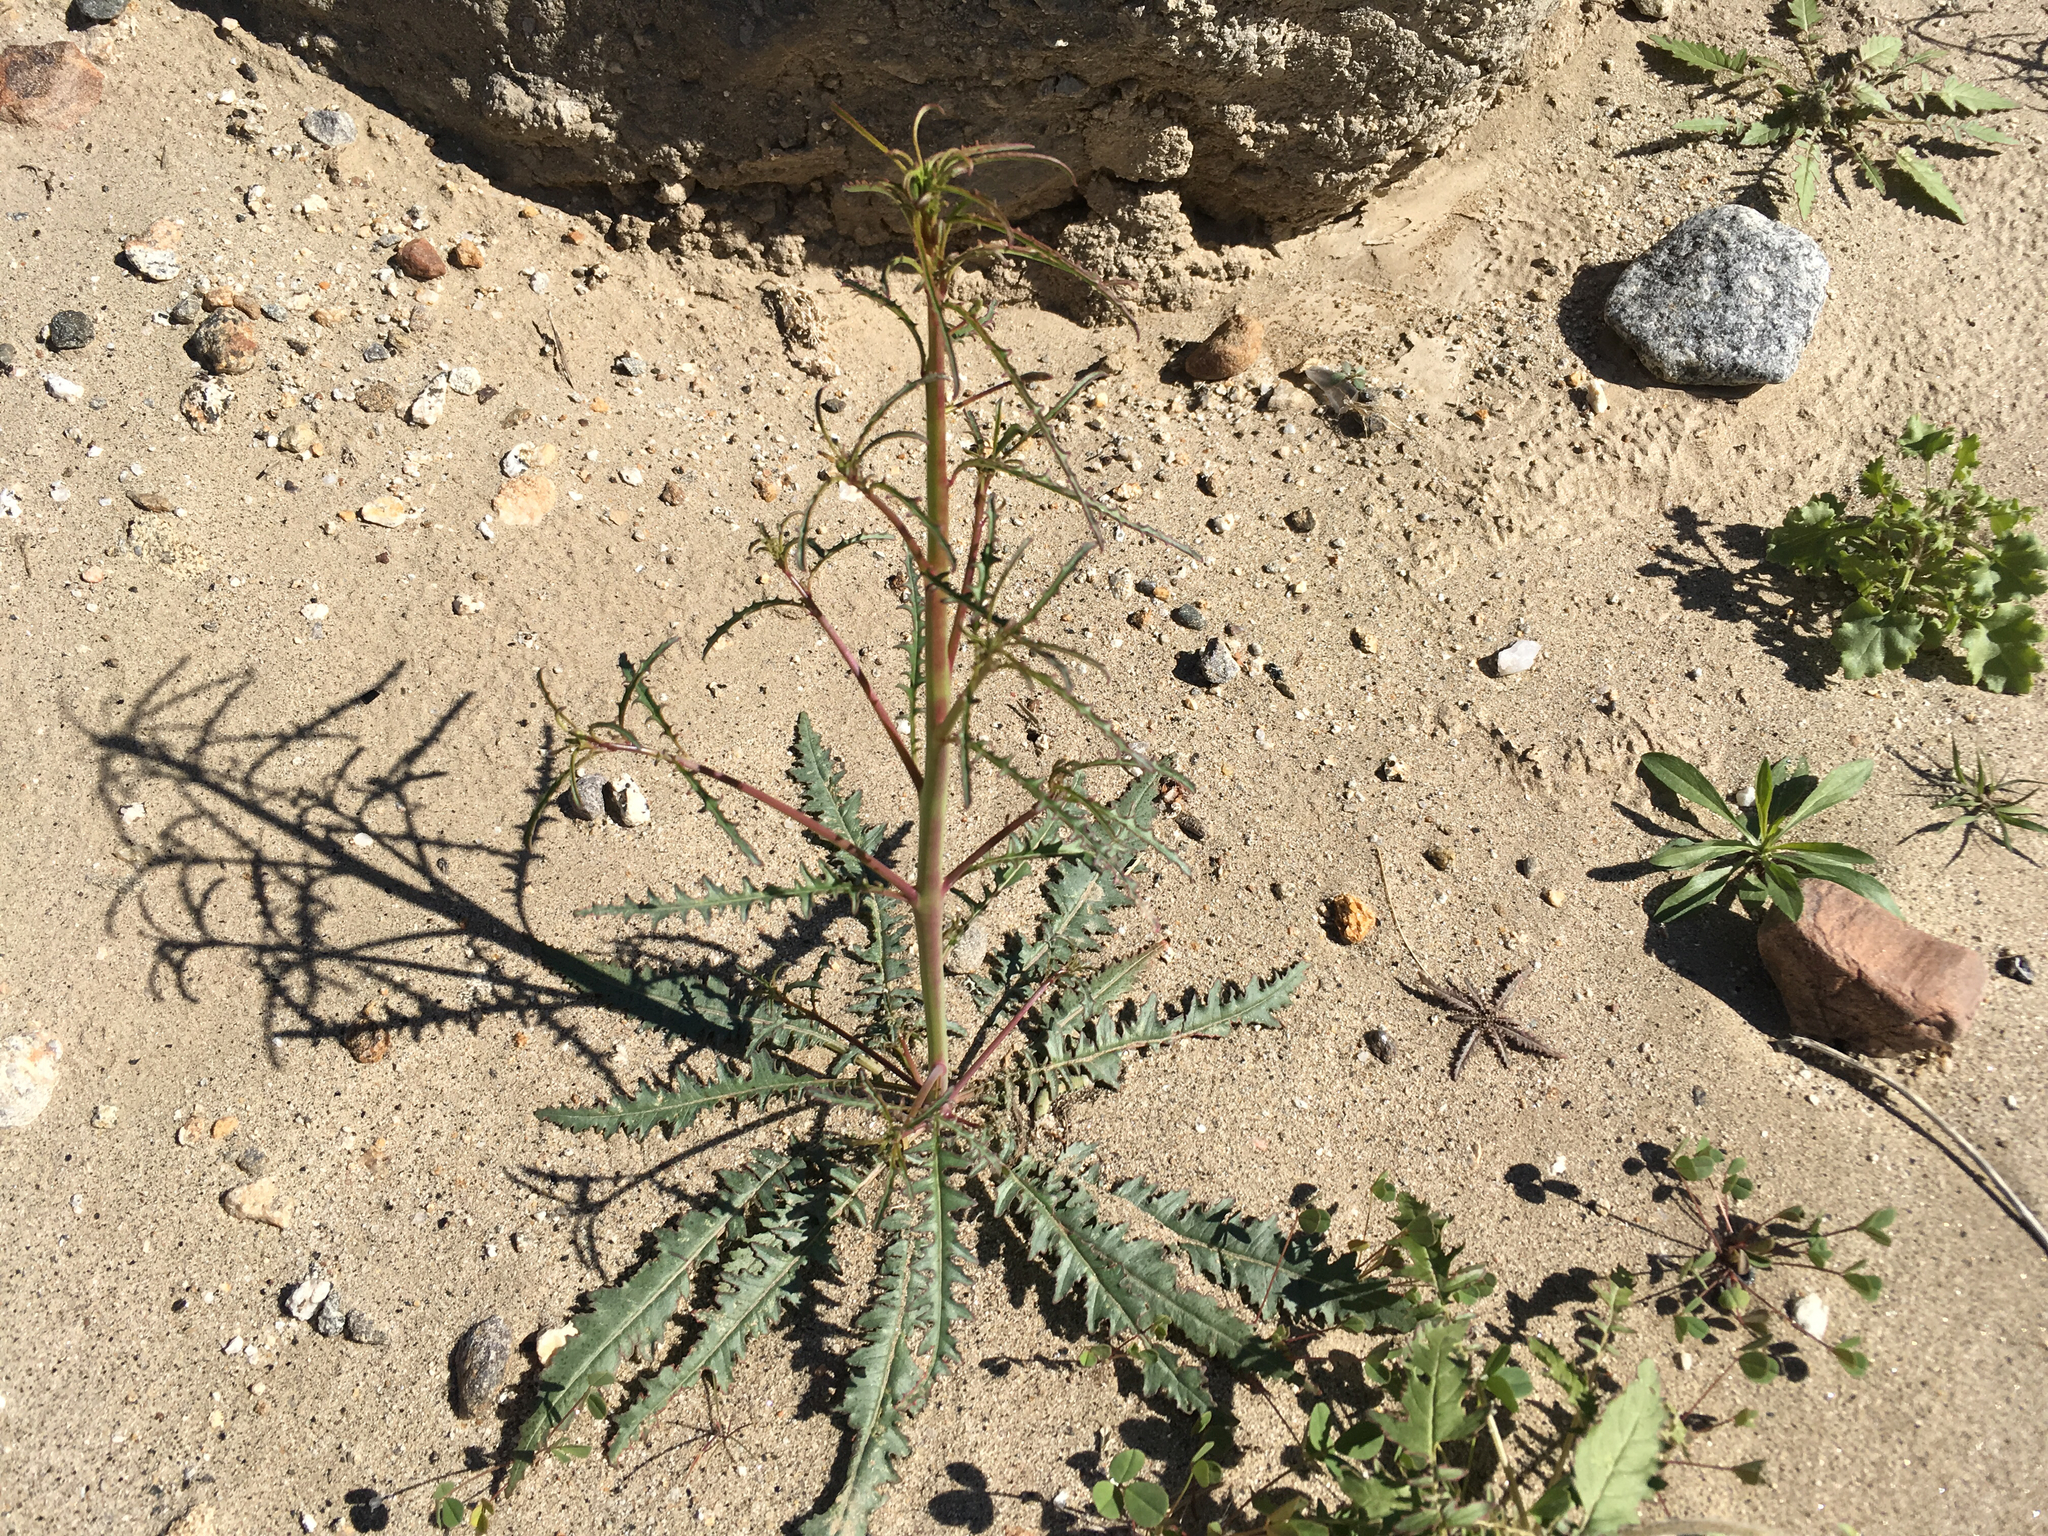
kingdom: Plantae
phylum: Tracheophyta
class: Magnoliopsida
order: Myrtales
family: Onagraceae
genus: Eulobus
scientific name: Eulobus californicus
